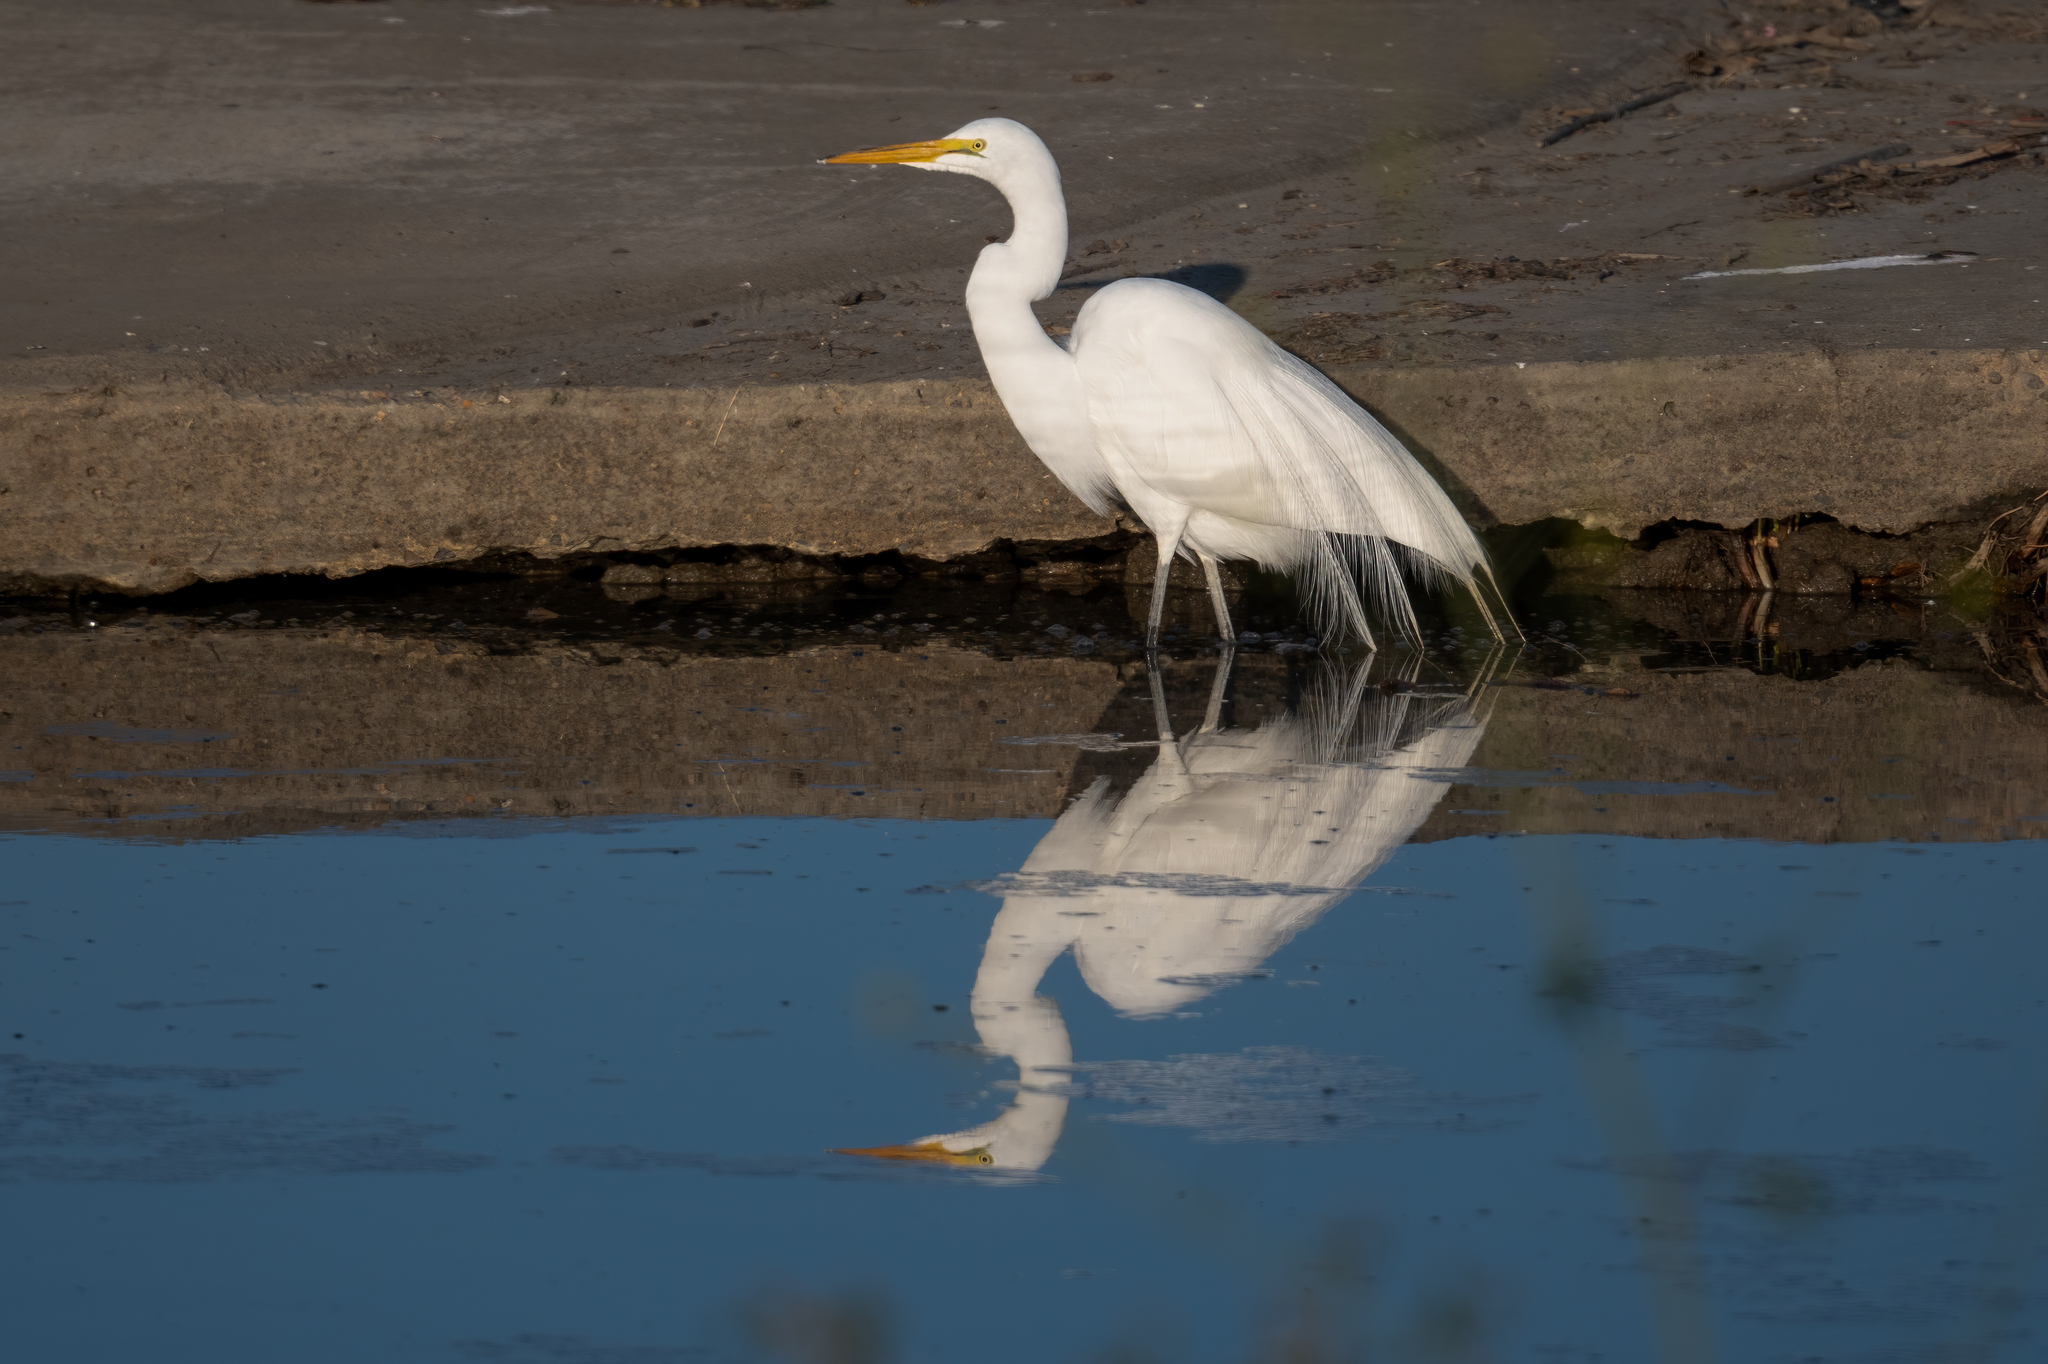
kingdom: Animalia
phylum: Chordata
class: Aves
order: Pelecaniformes
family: Ardeidae
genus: Ardea
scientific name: Ardea alba
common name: Great egret
